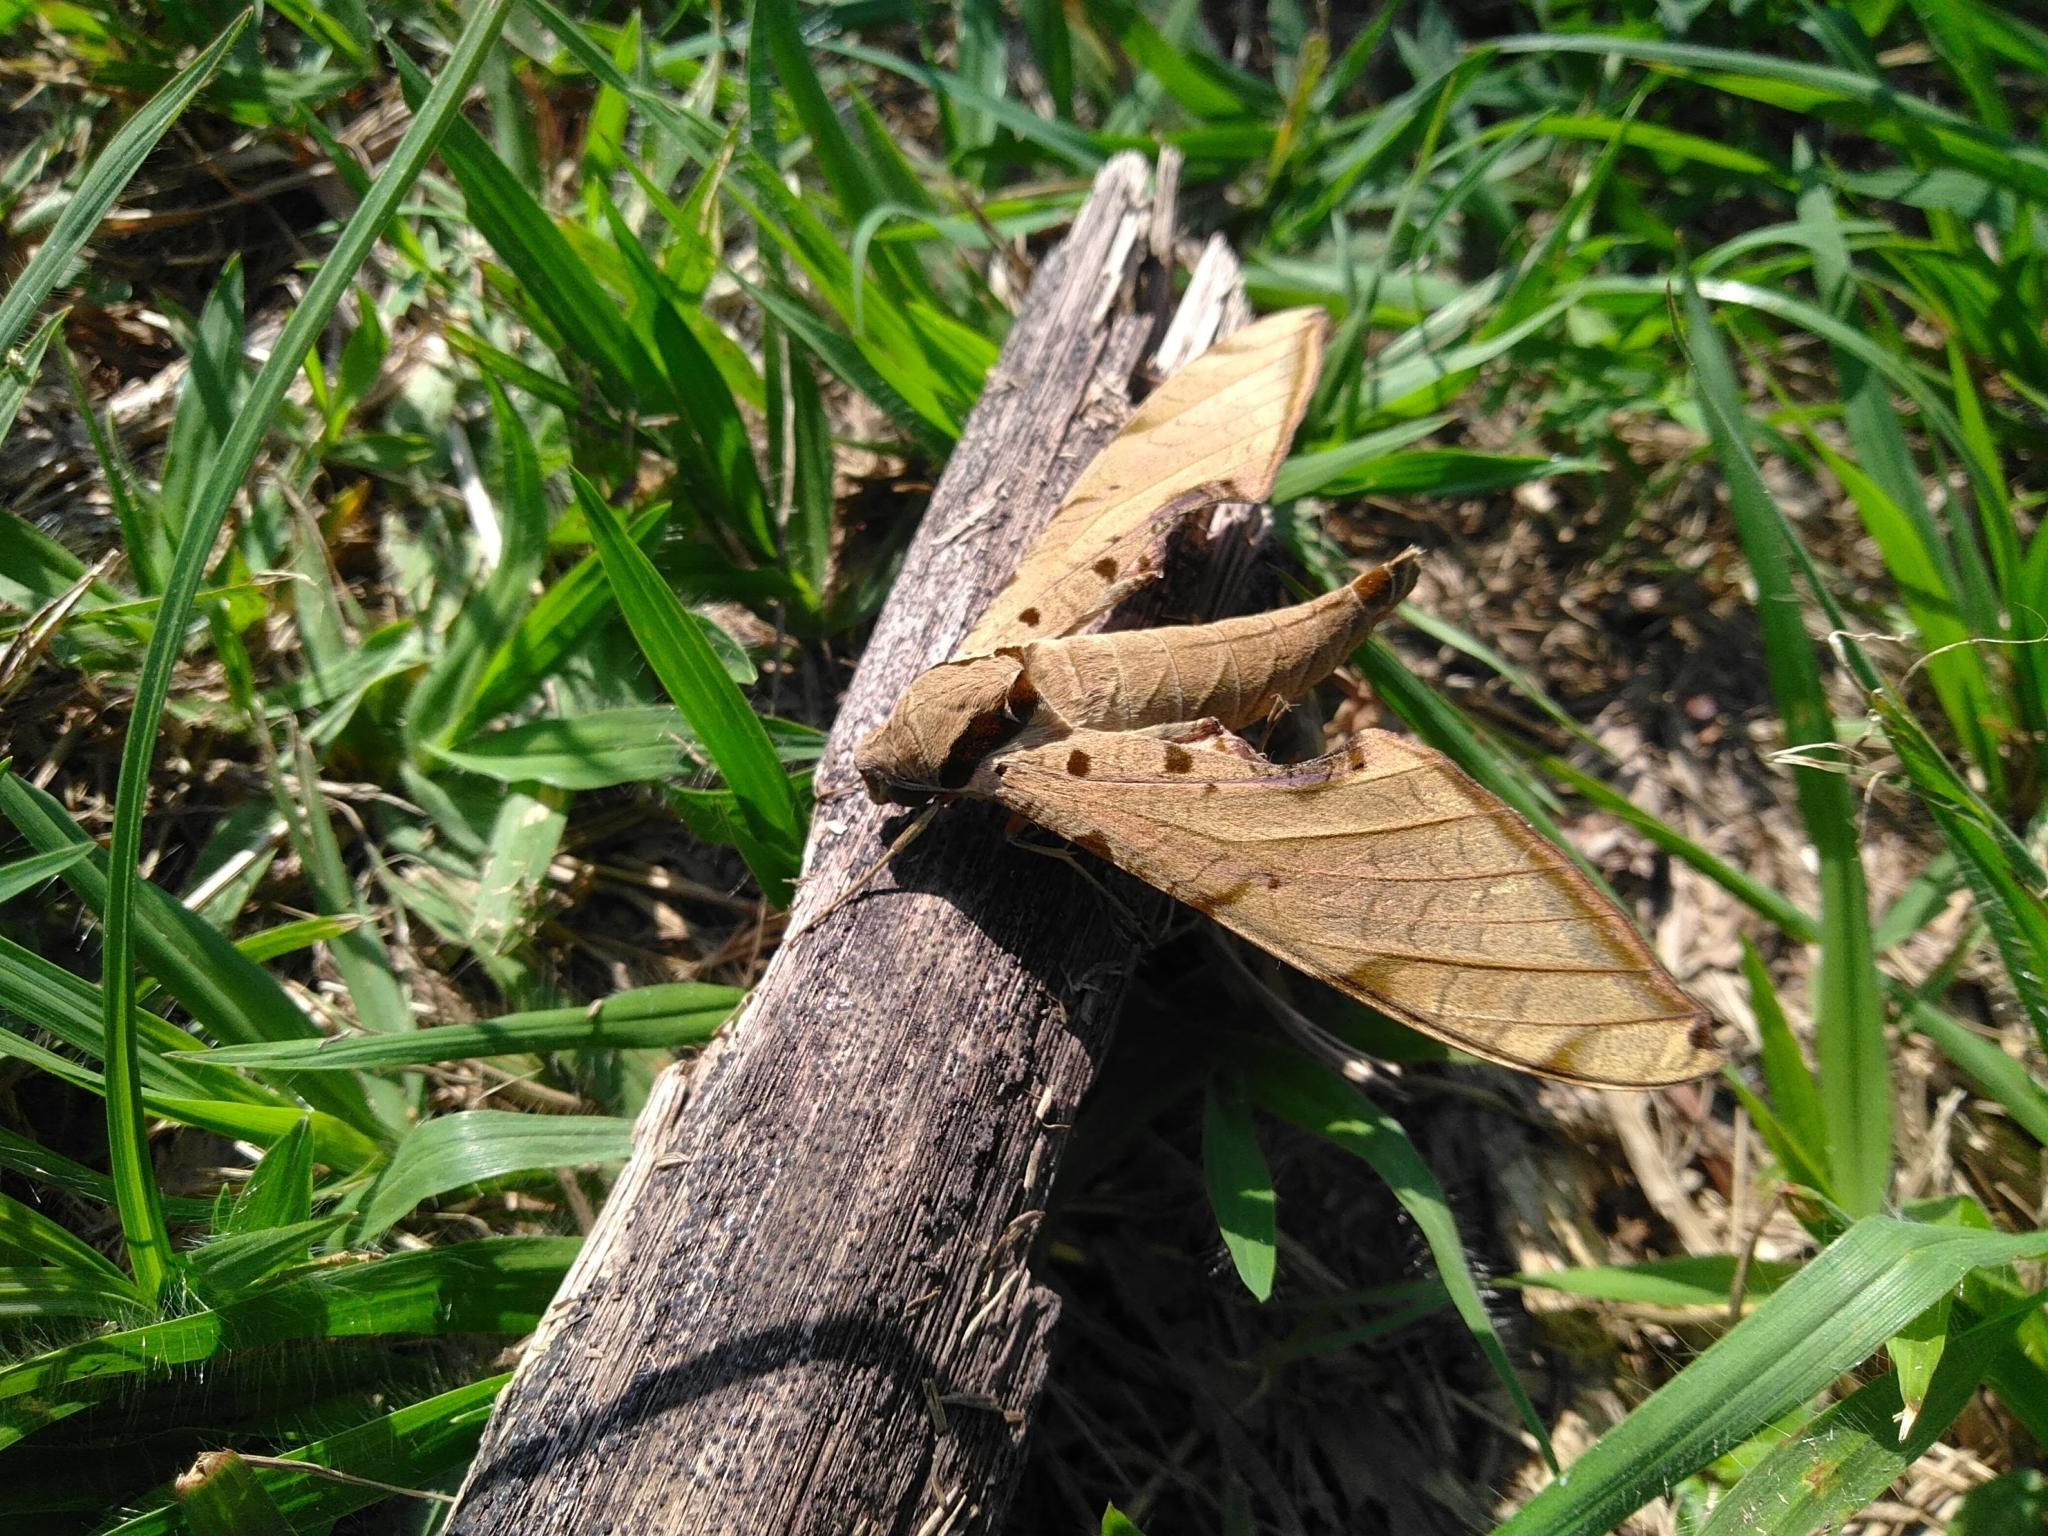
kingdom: Animalia
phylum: Arthropoda
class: Insecta
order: Lepidoptera
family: Sphingidae
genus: Protambulyx
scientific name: Protambulyx strigilis
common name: Streaked sphinx
